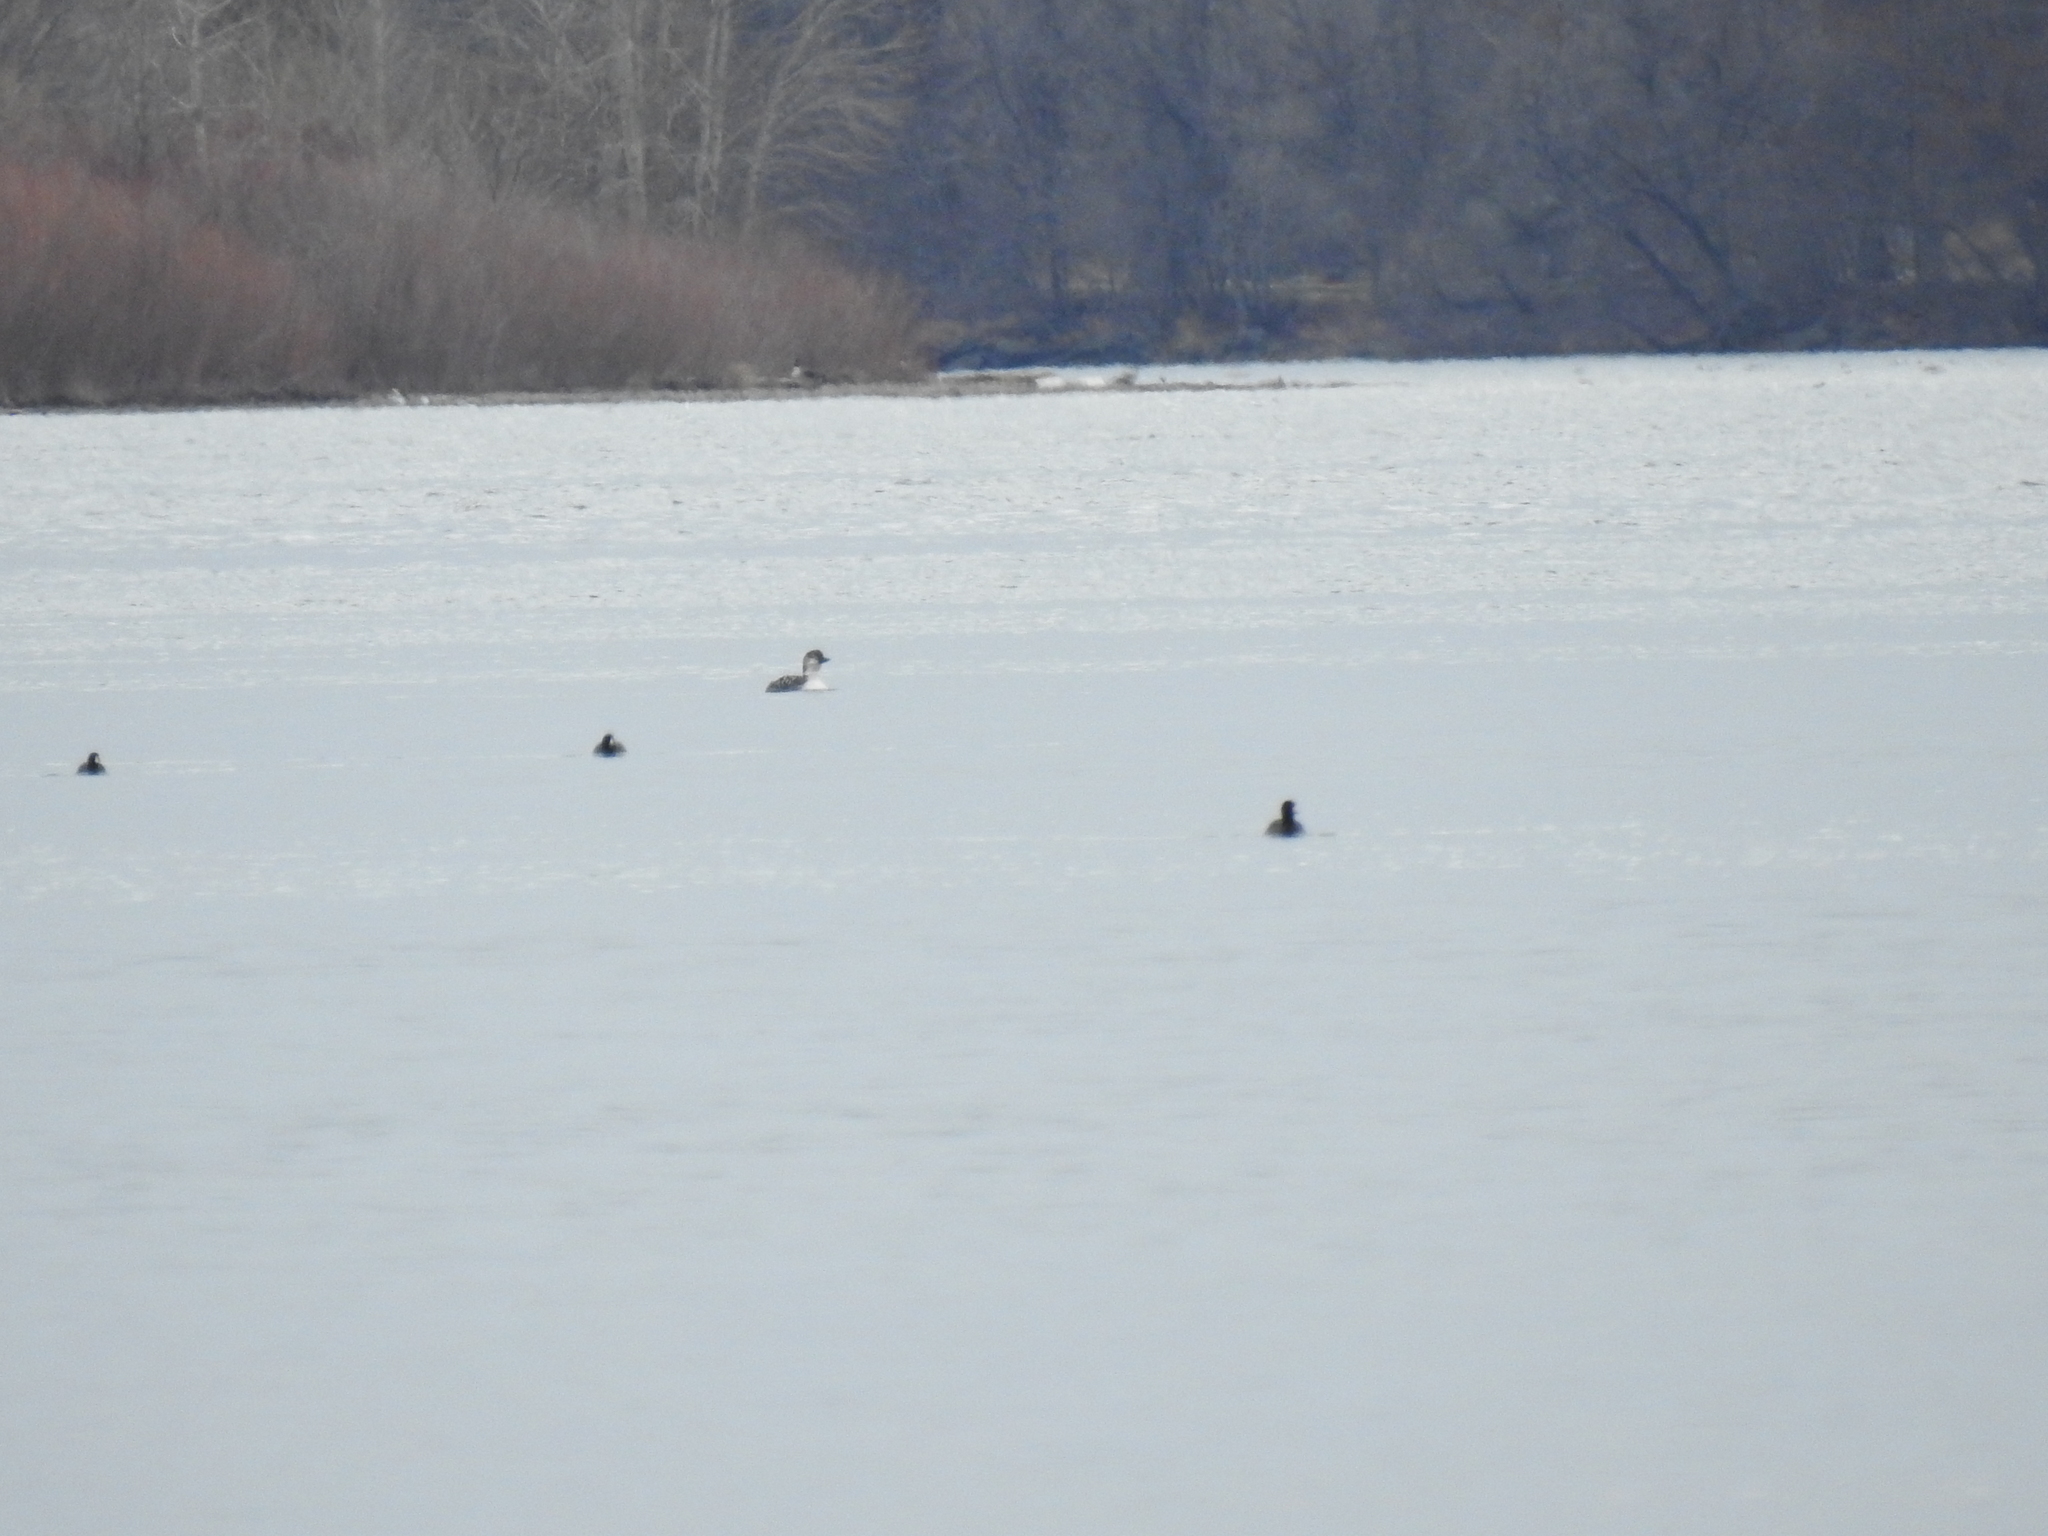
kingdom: Animalia
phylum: Chordata
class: Aves
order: Gaviiformes
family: Gaviidae
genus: Gavia
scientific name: Gavia immer
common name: Common loon
